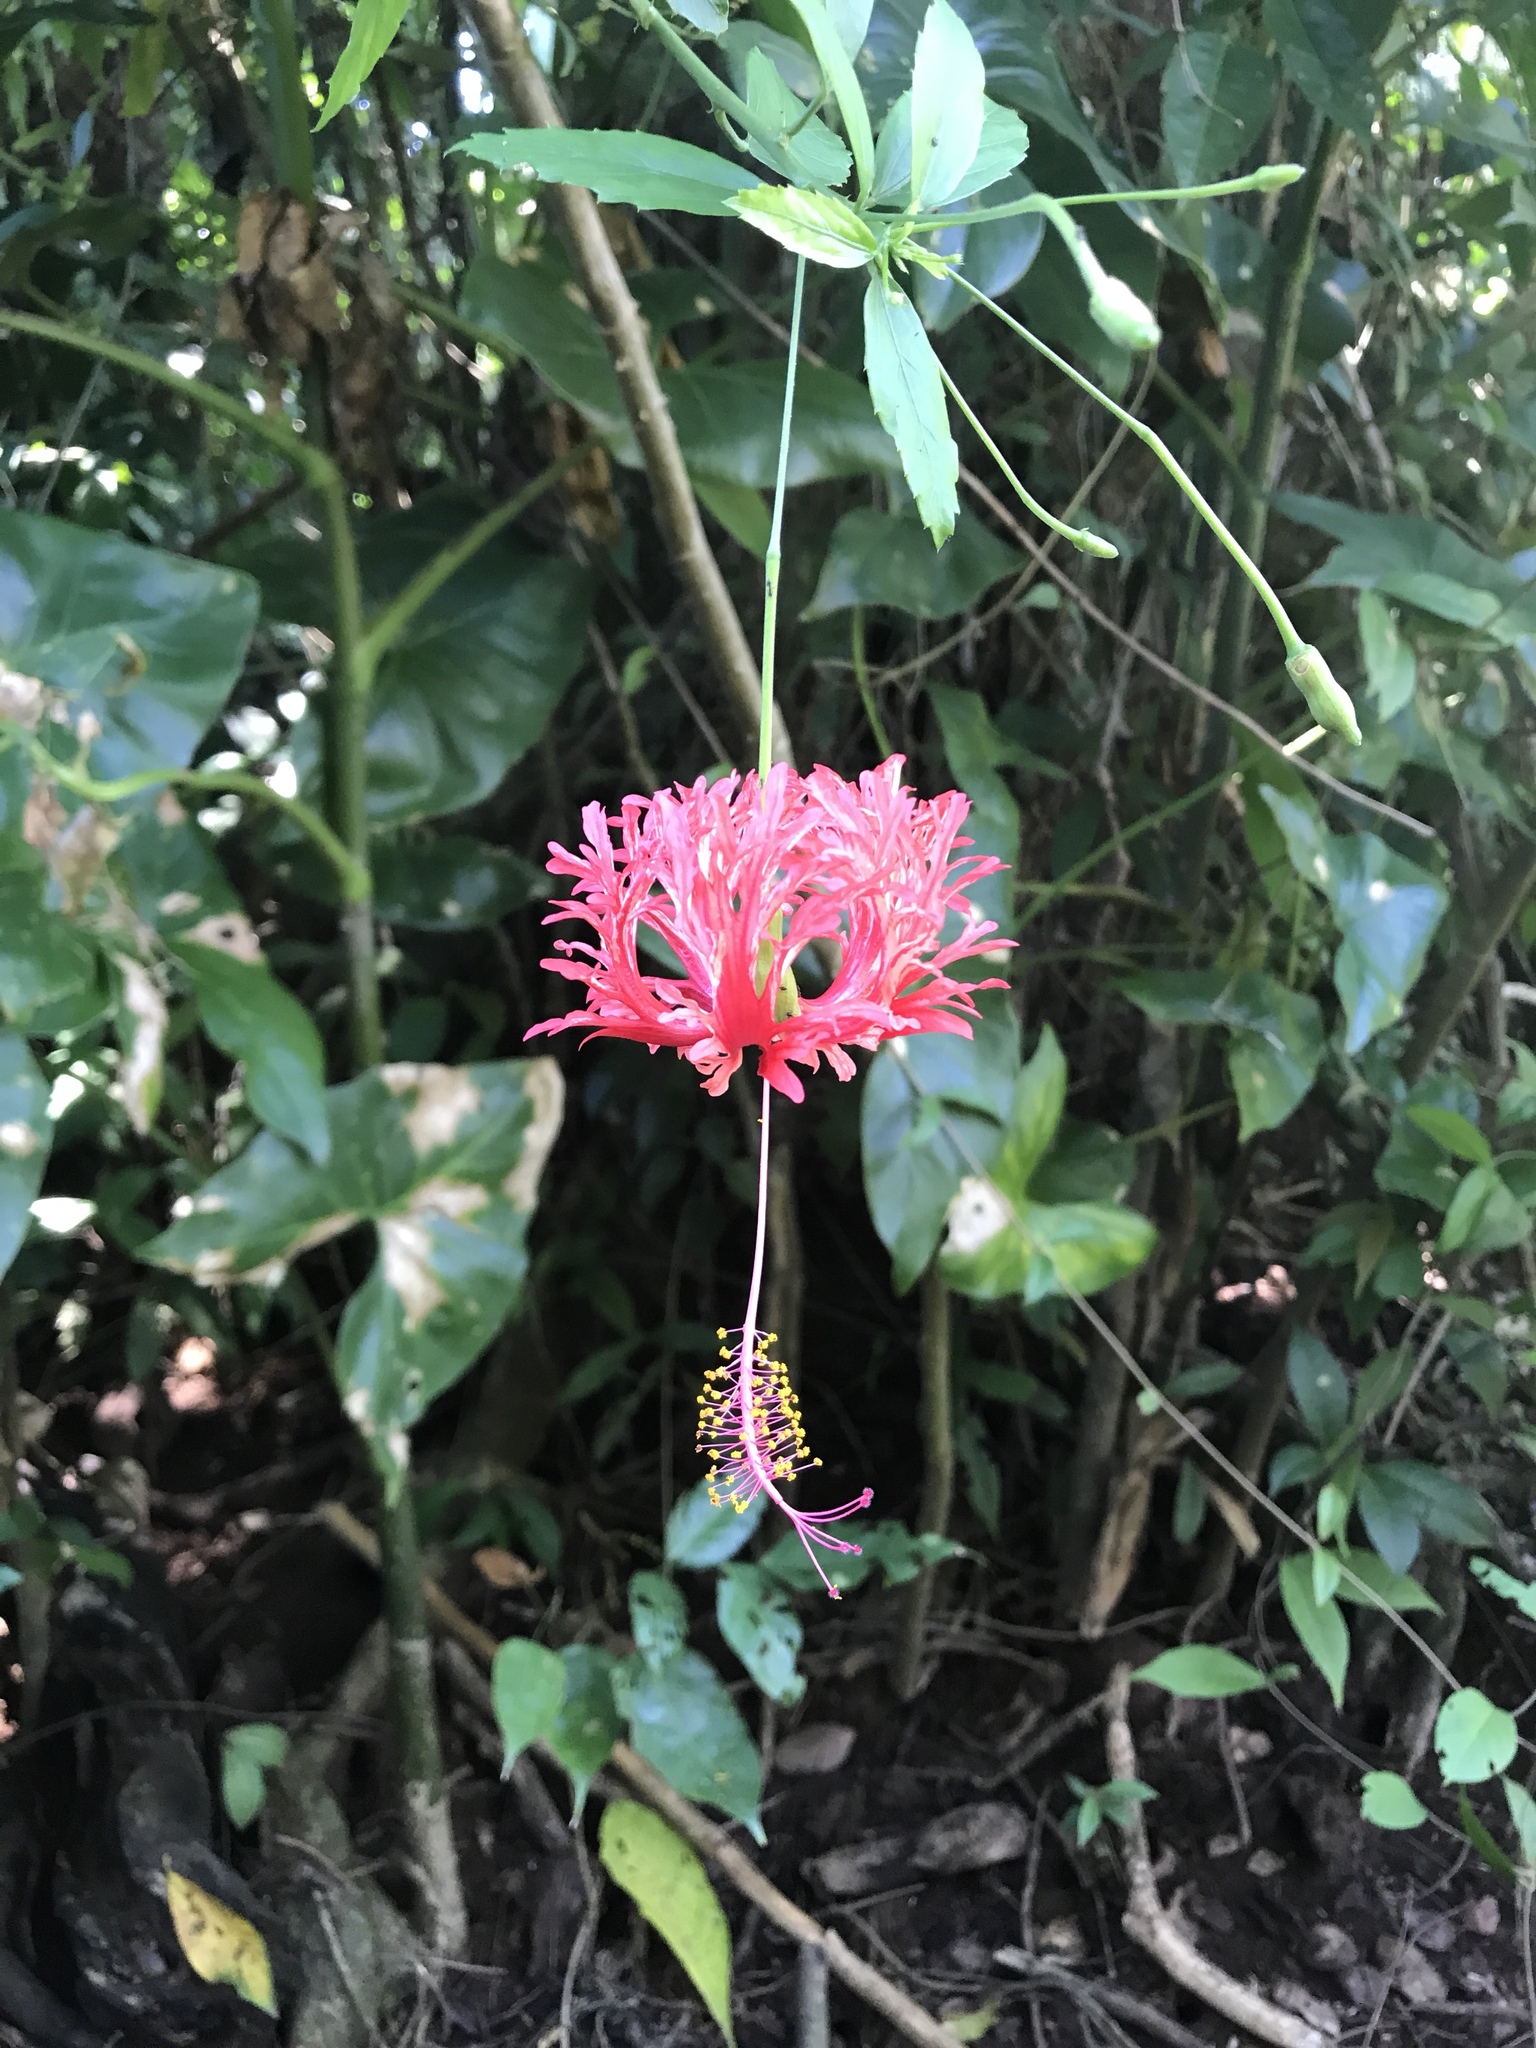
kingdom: Plantae
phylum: Tracheophyta
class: Magnoliopsida
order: Malvales
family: Malvaceae
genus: Hibiscus
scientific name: Hibiscus schizopetalus
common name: Fringed rosemallow
